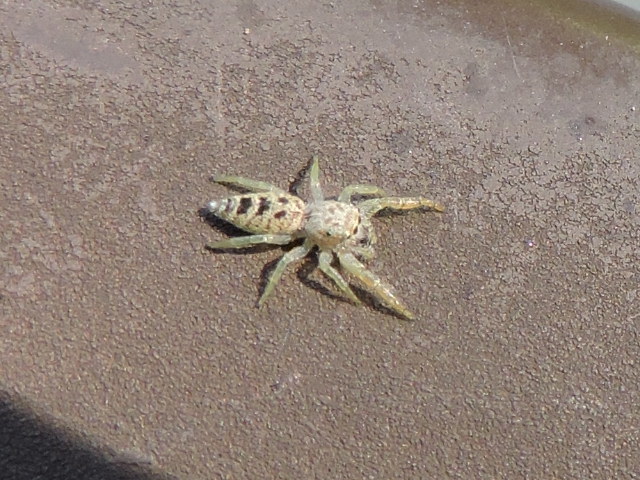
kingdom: Animalia
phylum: Arthropoda
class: Arachnida
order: Araneae
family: Salticidae
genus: Hentzia
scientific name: Hentzia mitrata
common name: White-jawed jumping spider
